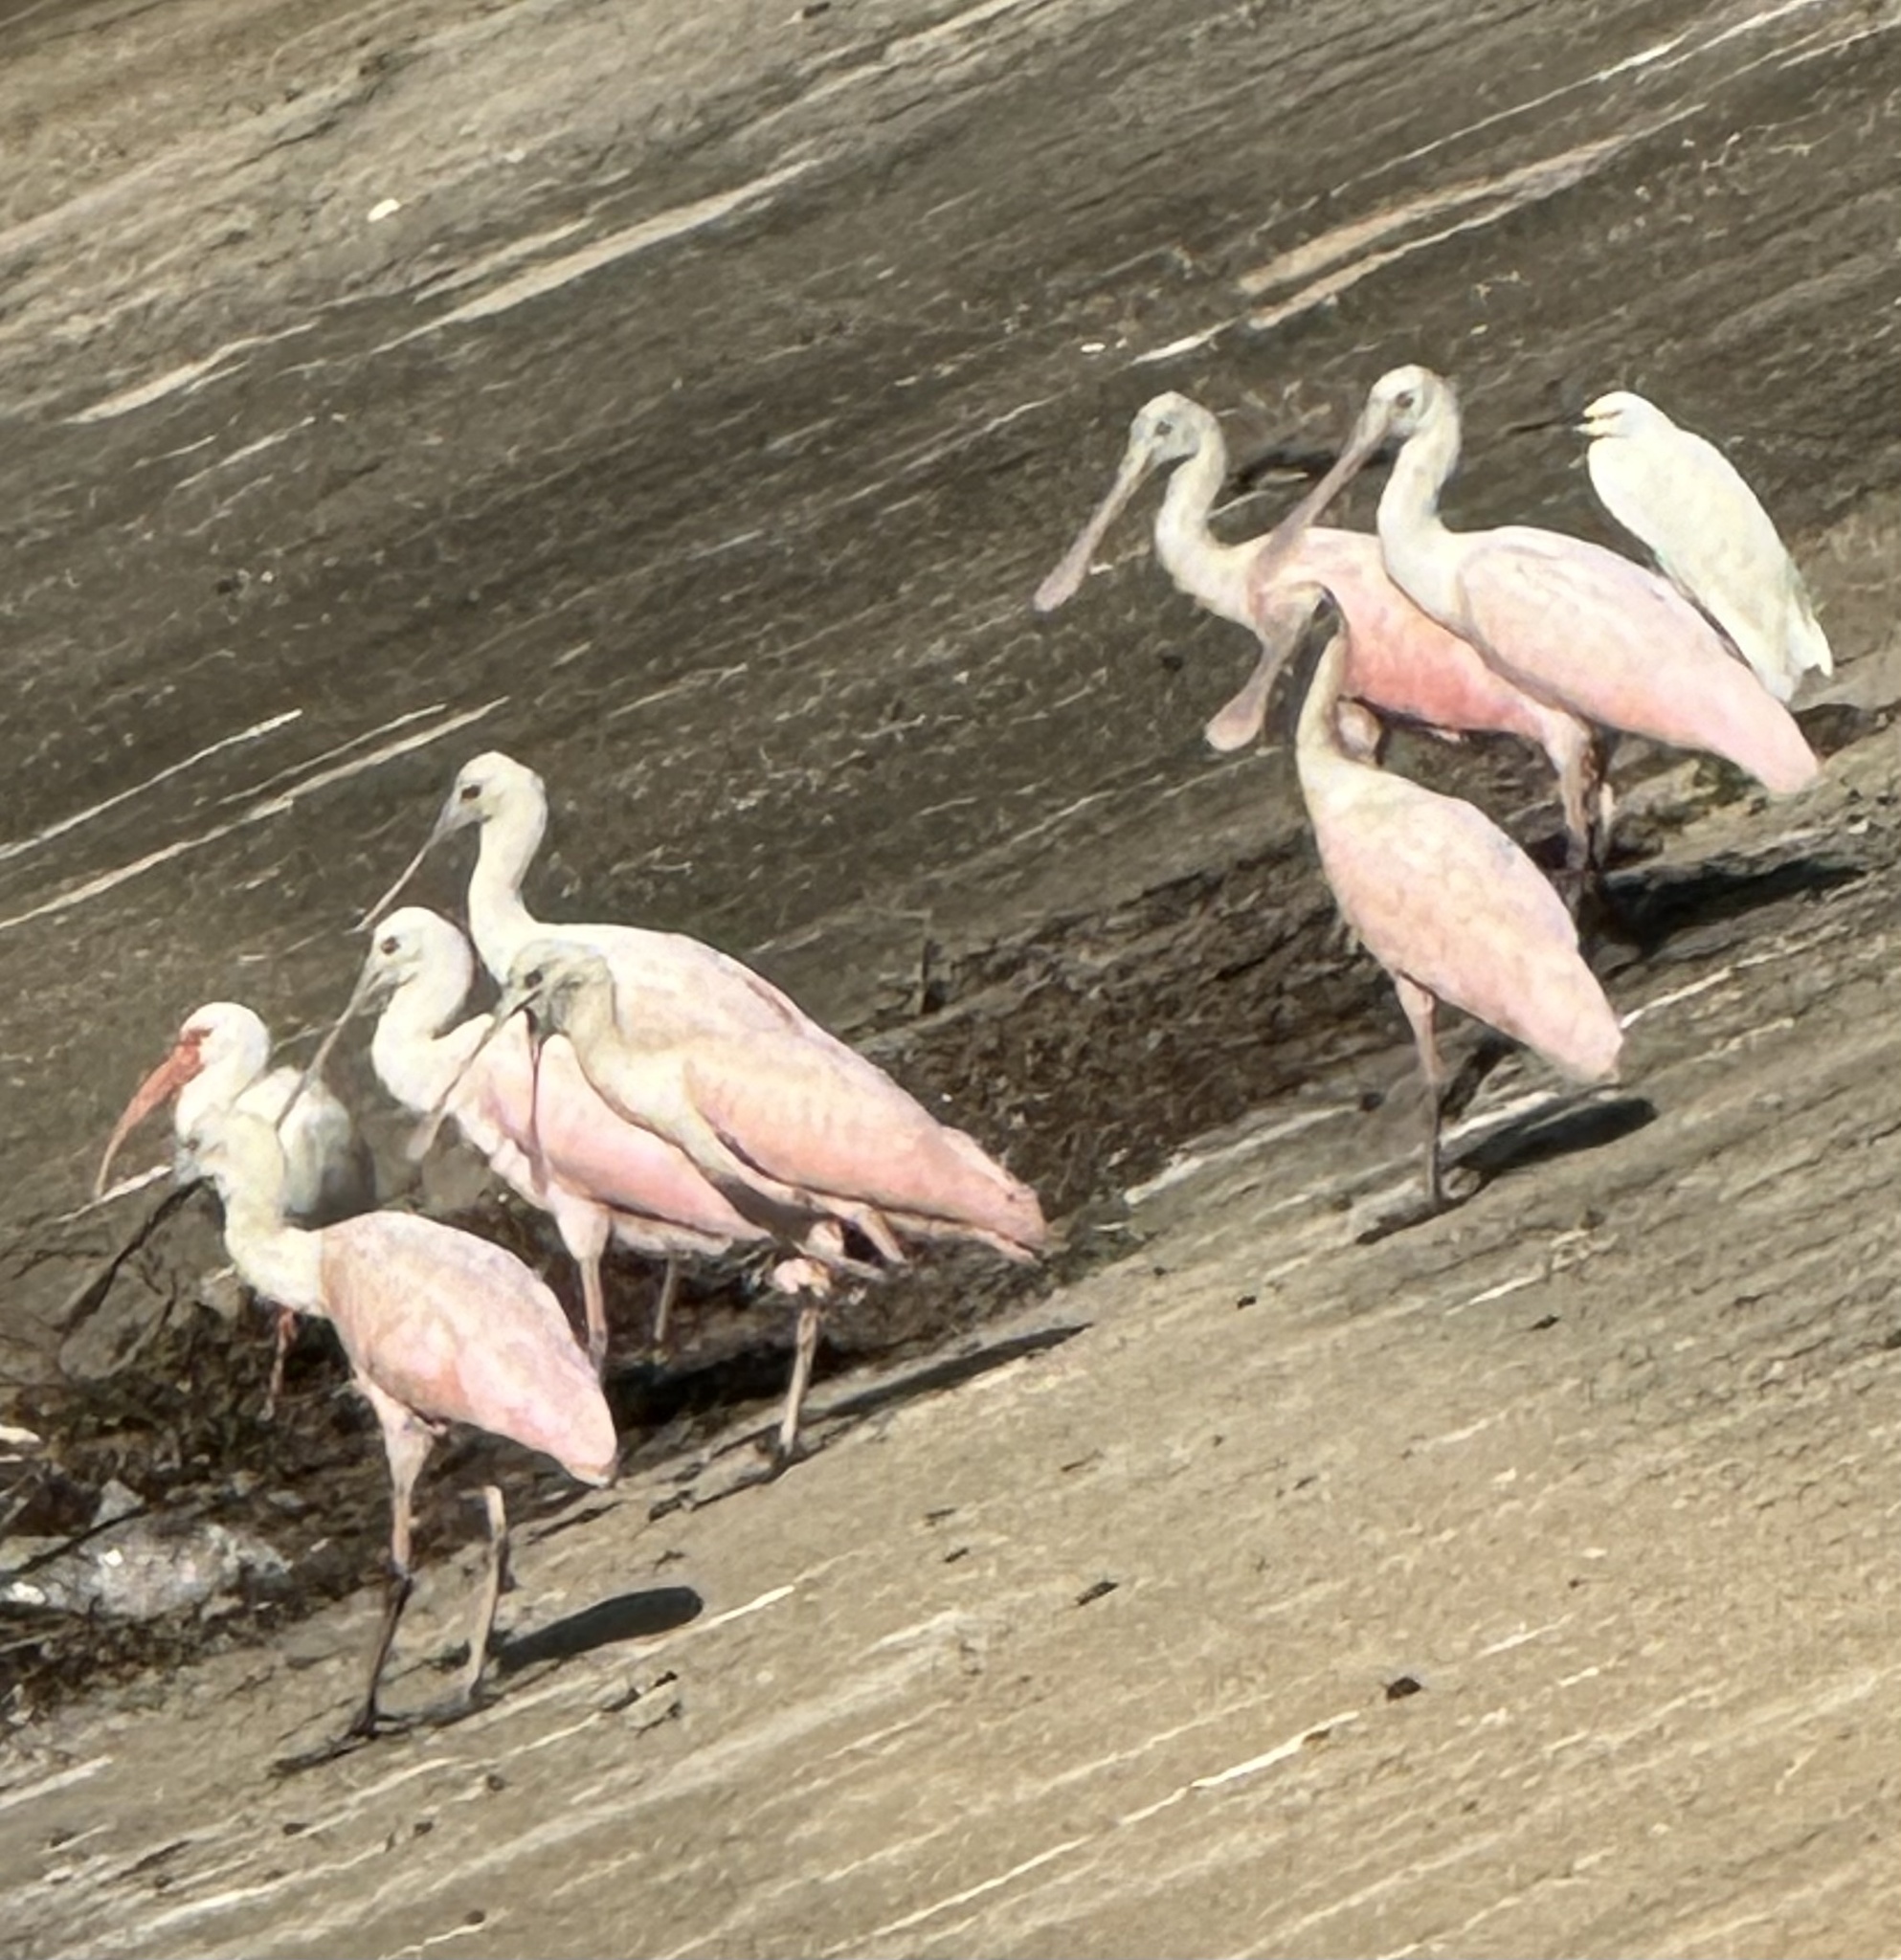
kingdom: Animalia
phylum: Chordata
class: Aves
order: Pelecaniformes
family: Threskiornithidae
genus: Platalea
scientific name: Platalea ajaja
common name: Roseate spoonbill
